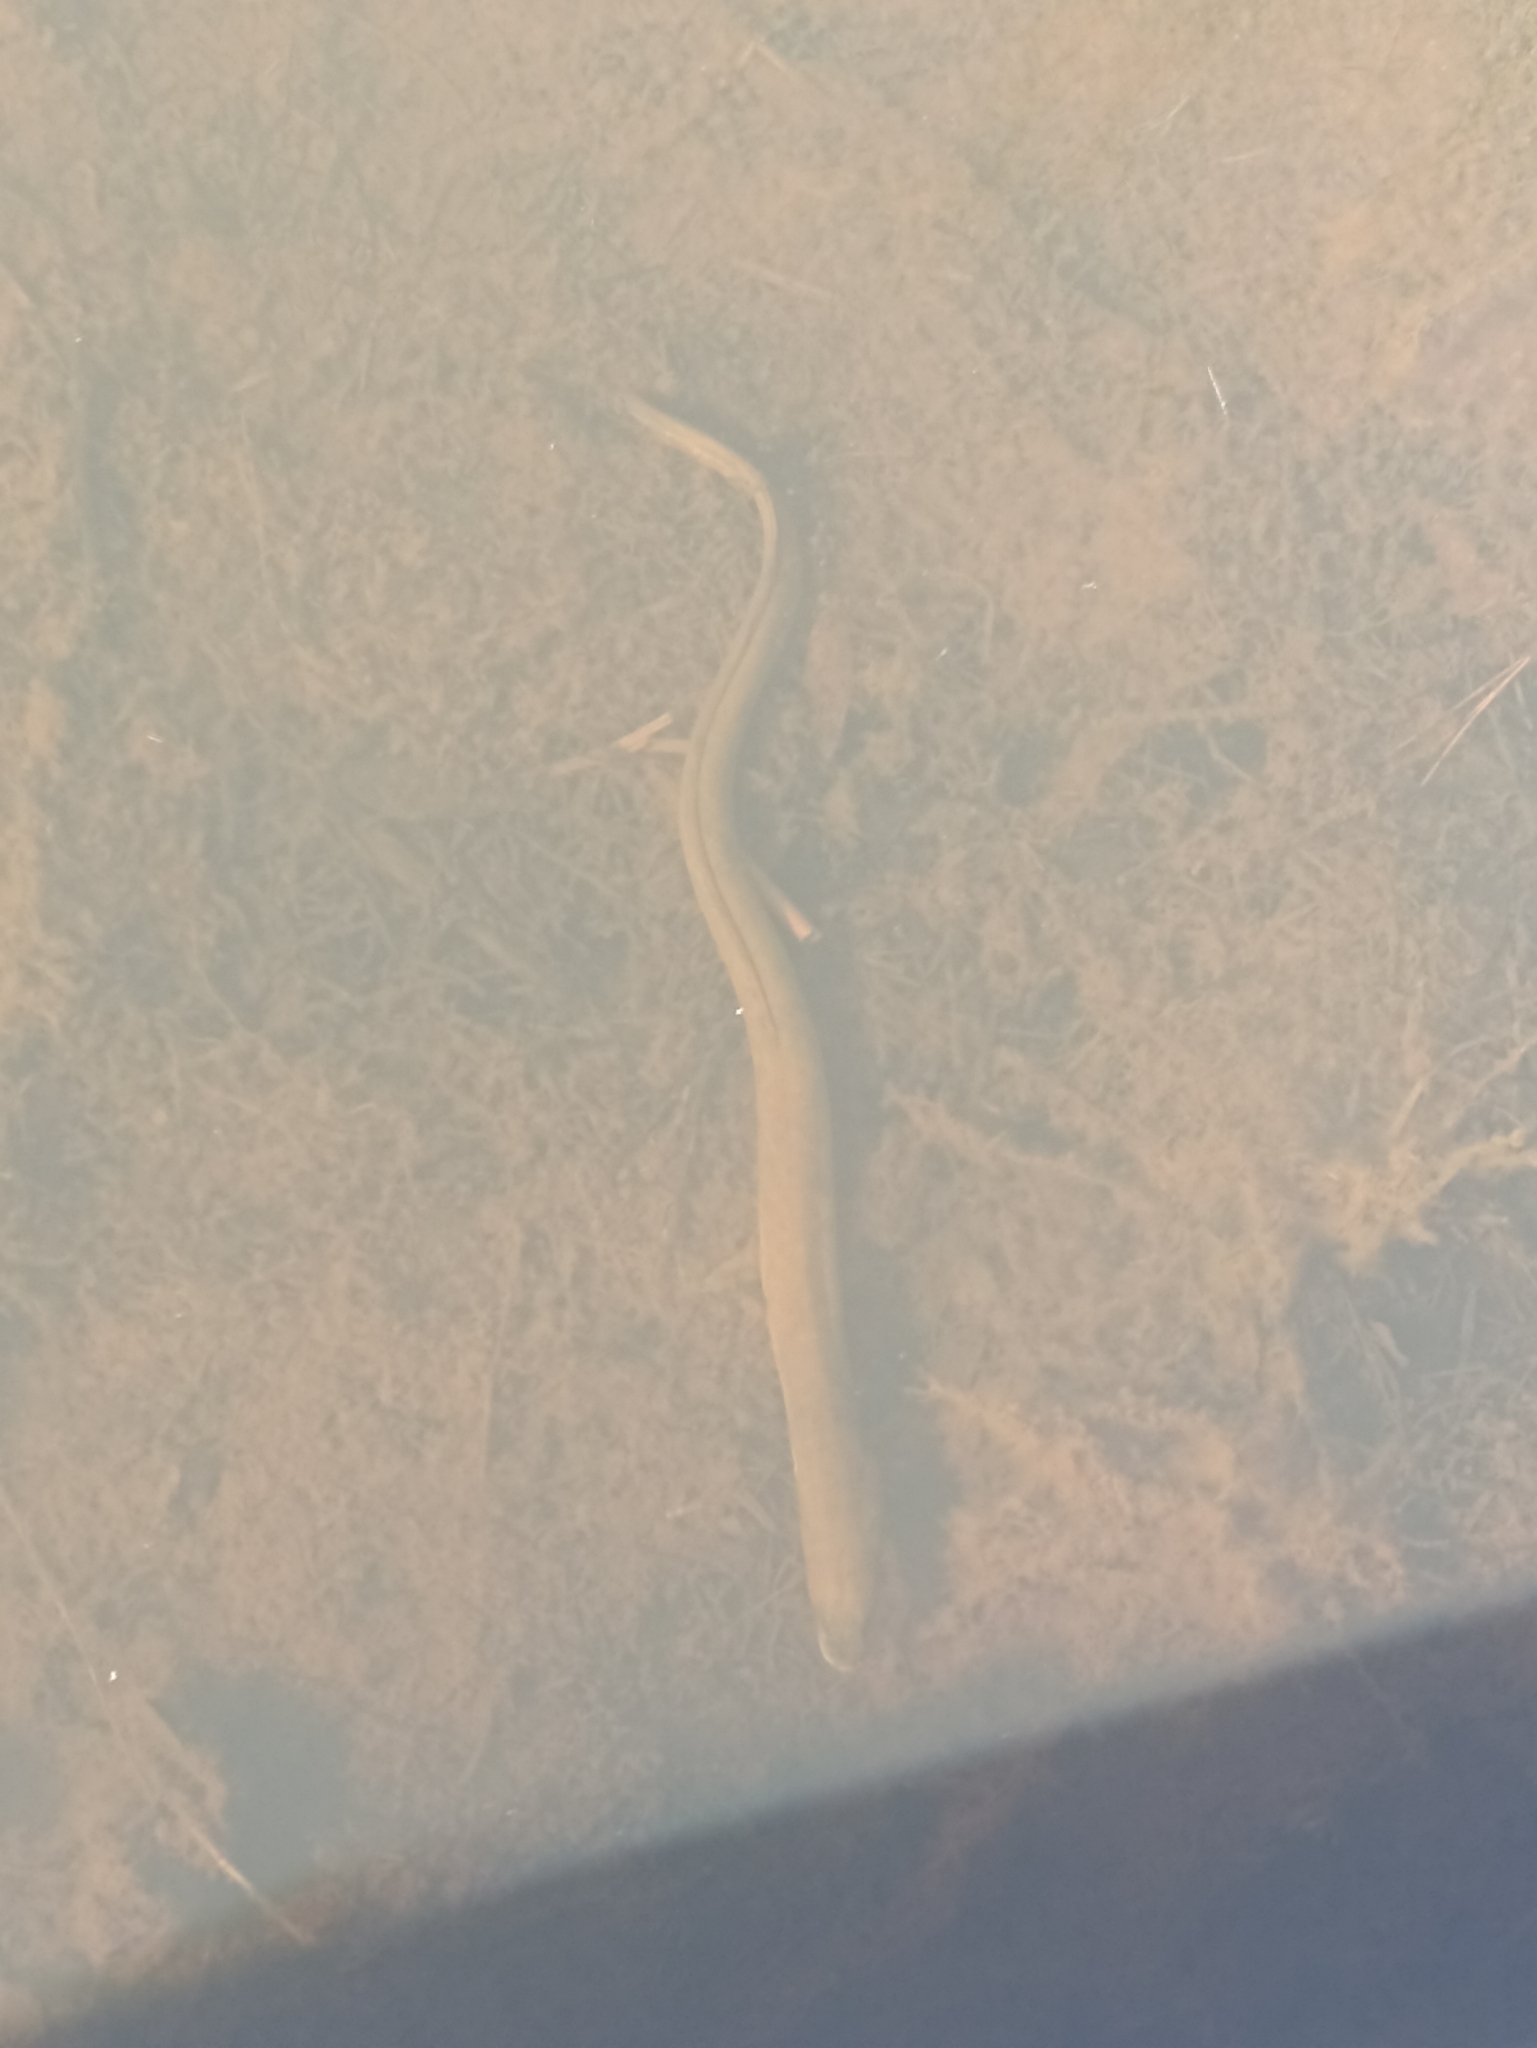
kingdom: Animalia
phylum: Chordata
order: Anguilliformes
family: Anguillidae
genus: Anguilla
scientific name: Anguilla australis
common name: Shortfin eel
